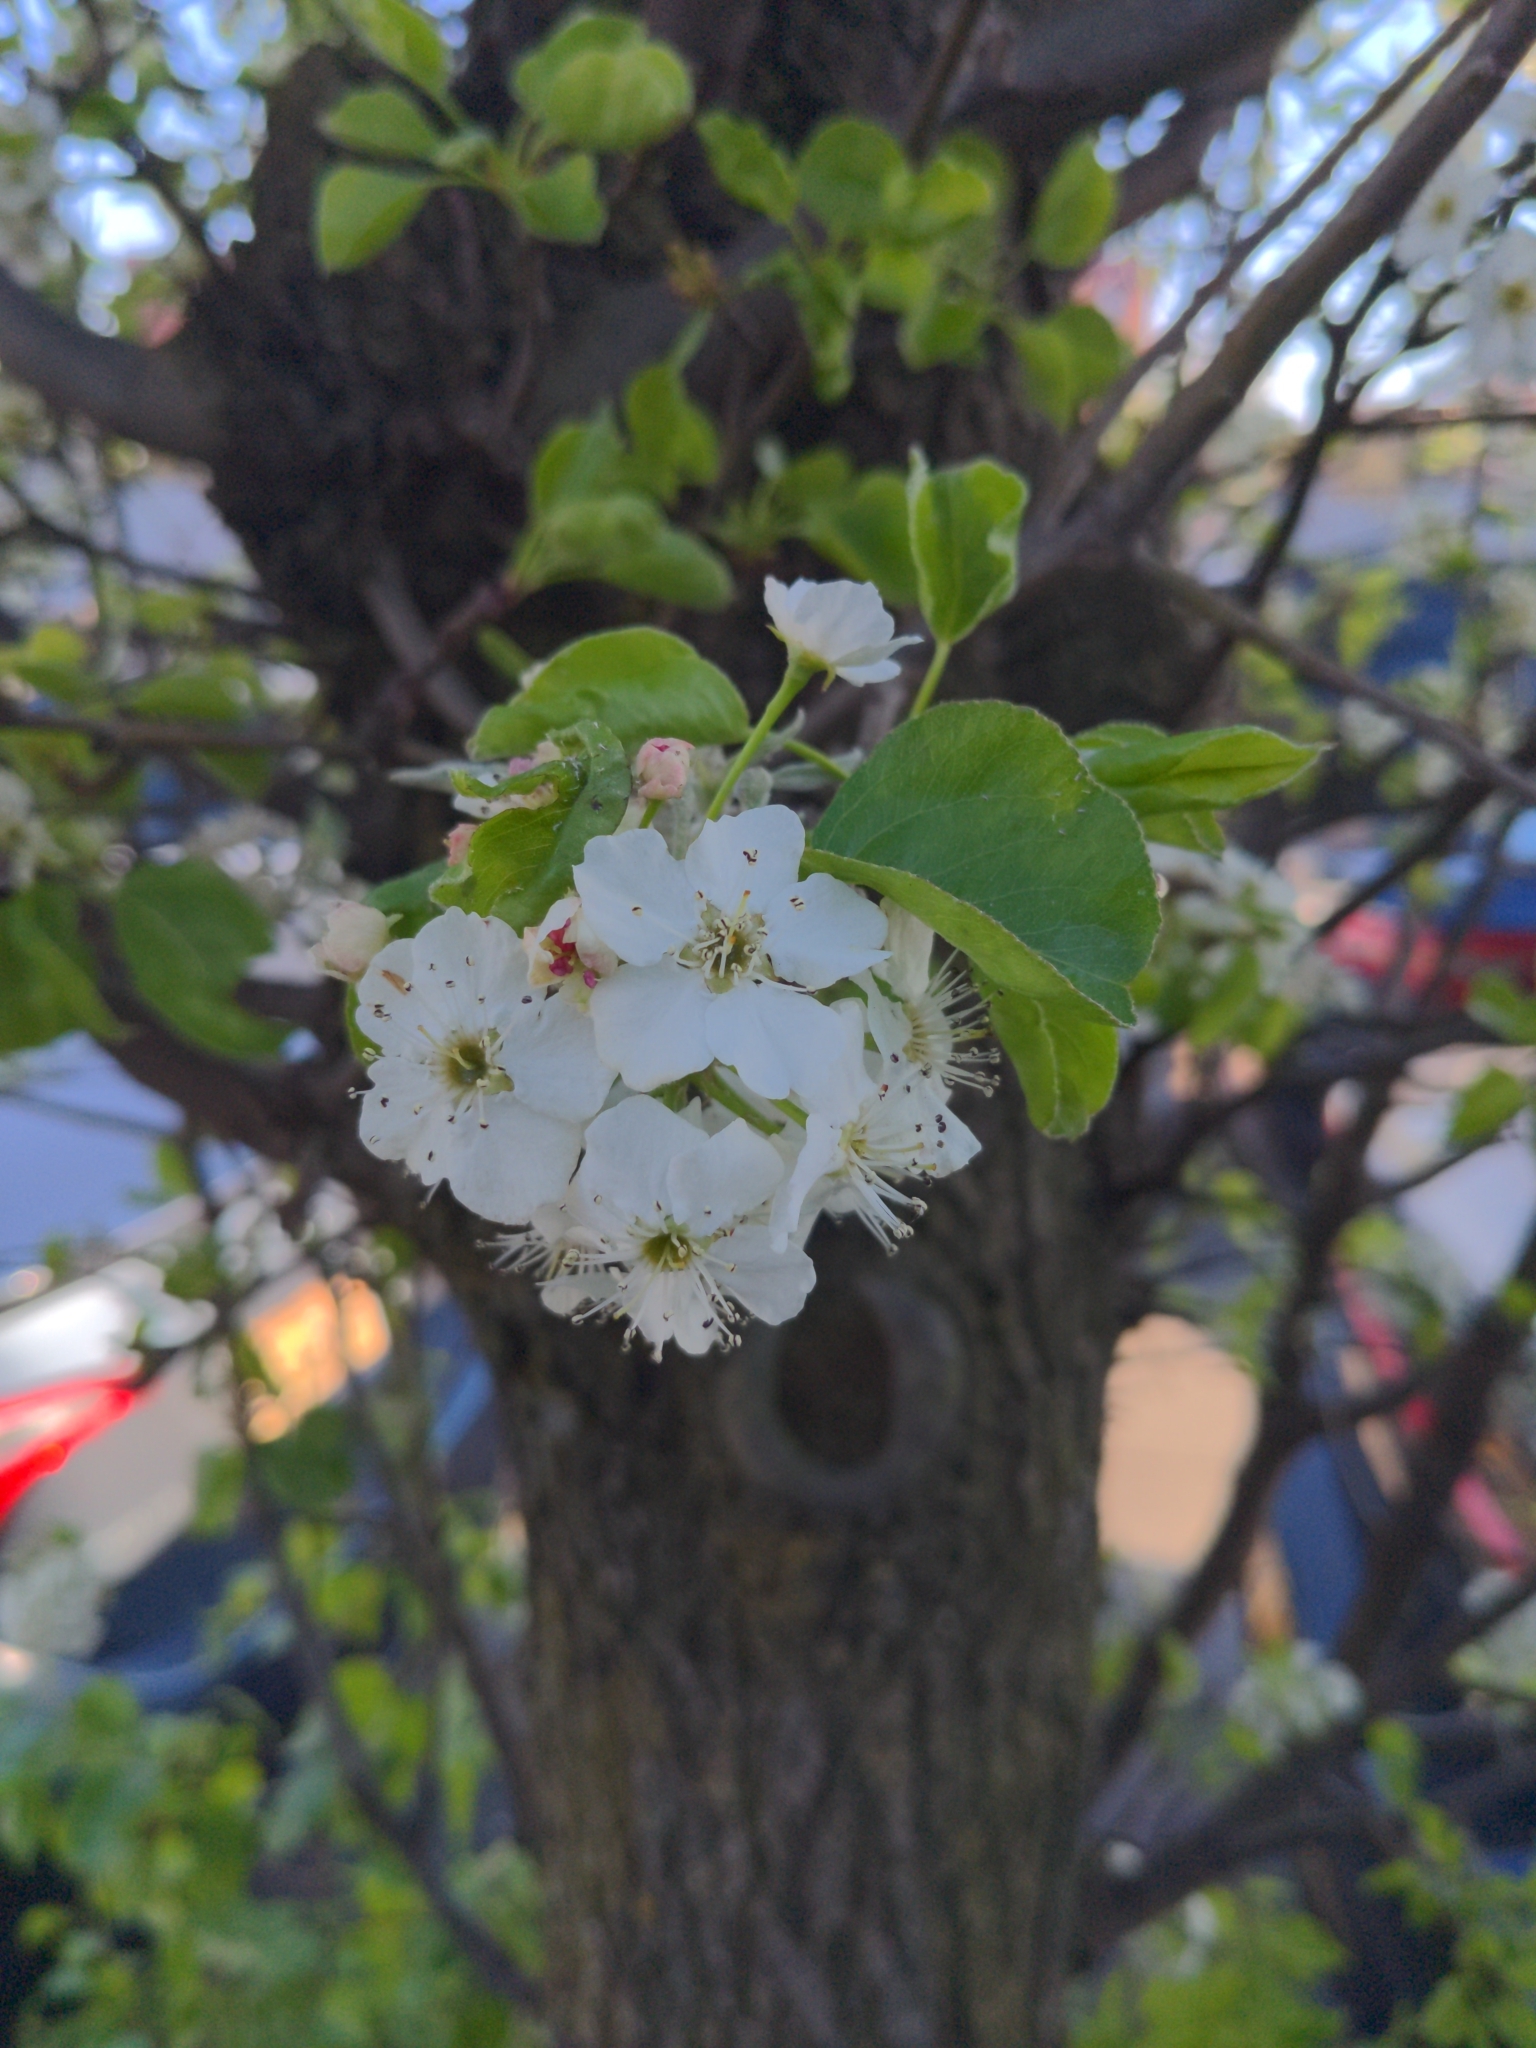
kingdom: Plantae
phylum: Tracheophyta
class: Magnoliopsida
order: Rosales
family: Rosaceae
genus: Pyrus
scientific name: Pyrus calleryana
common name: Callery pear
